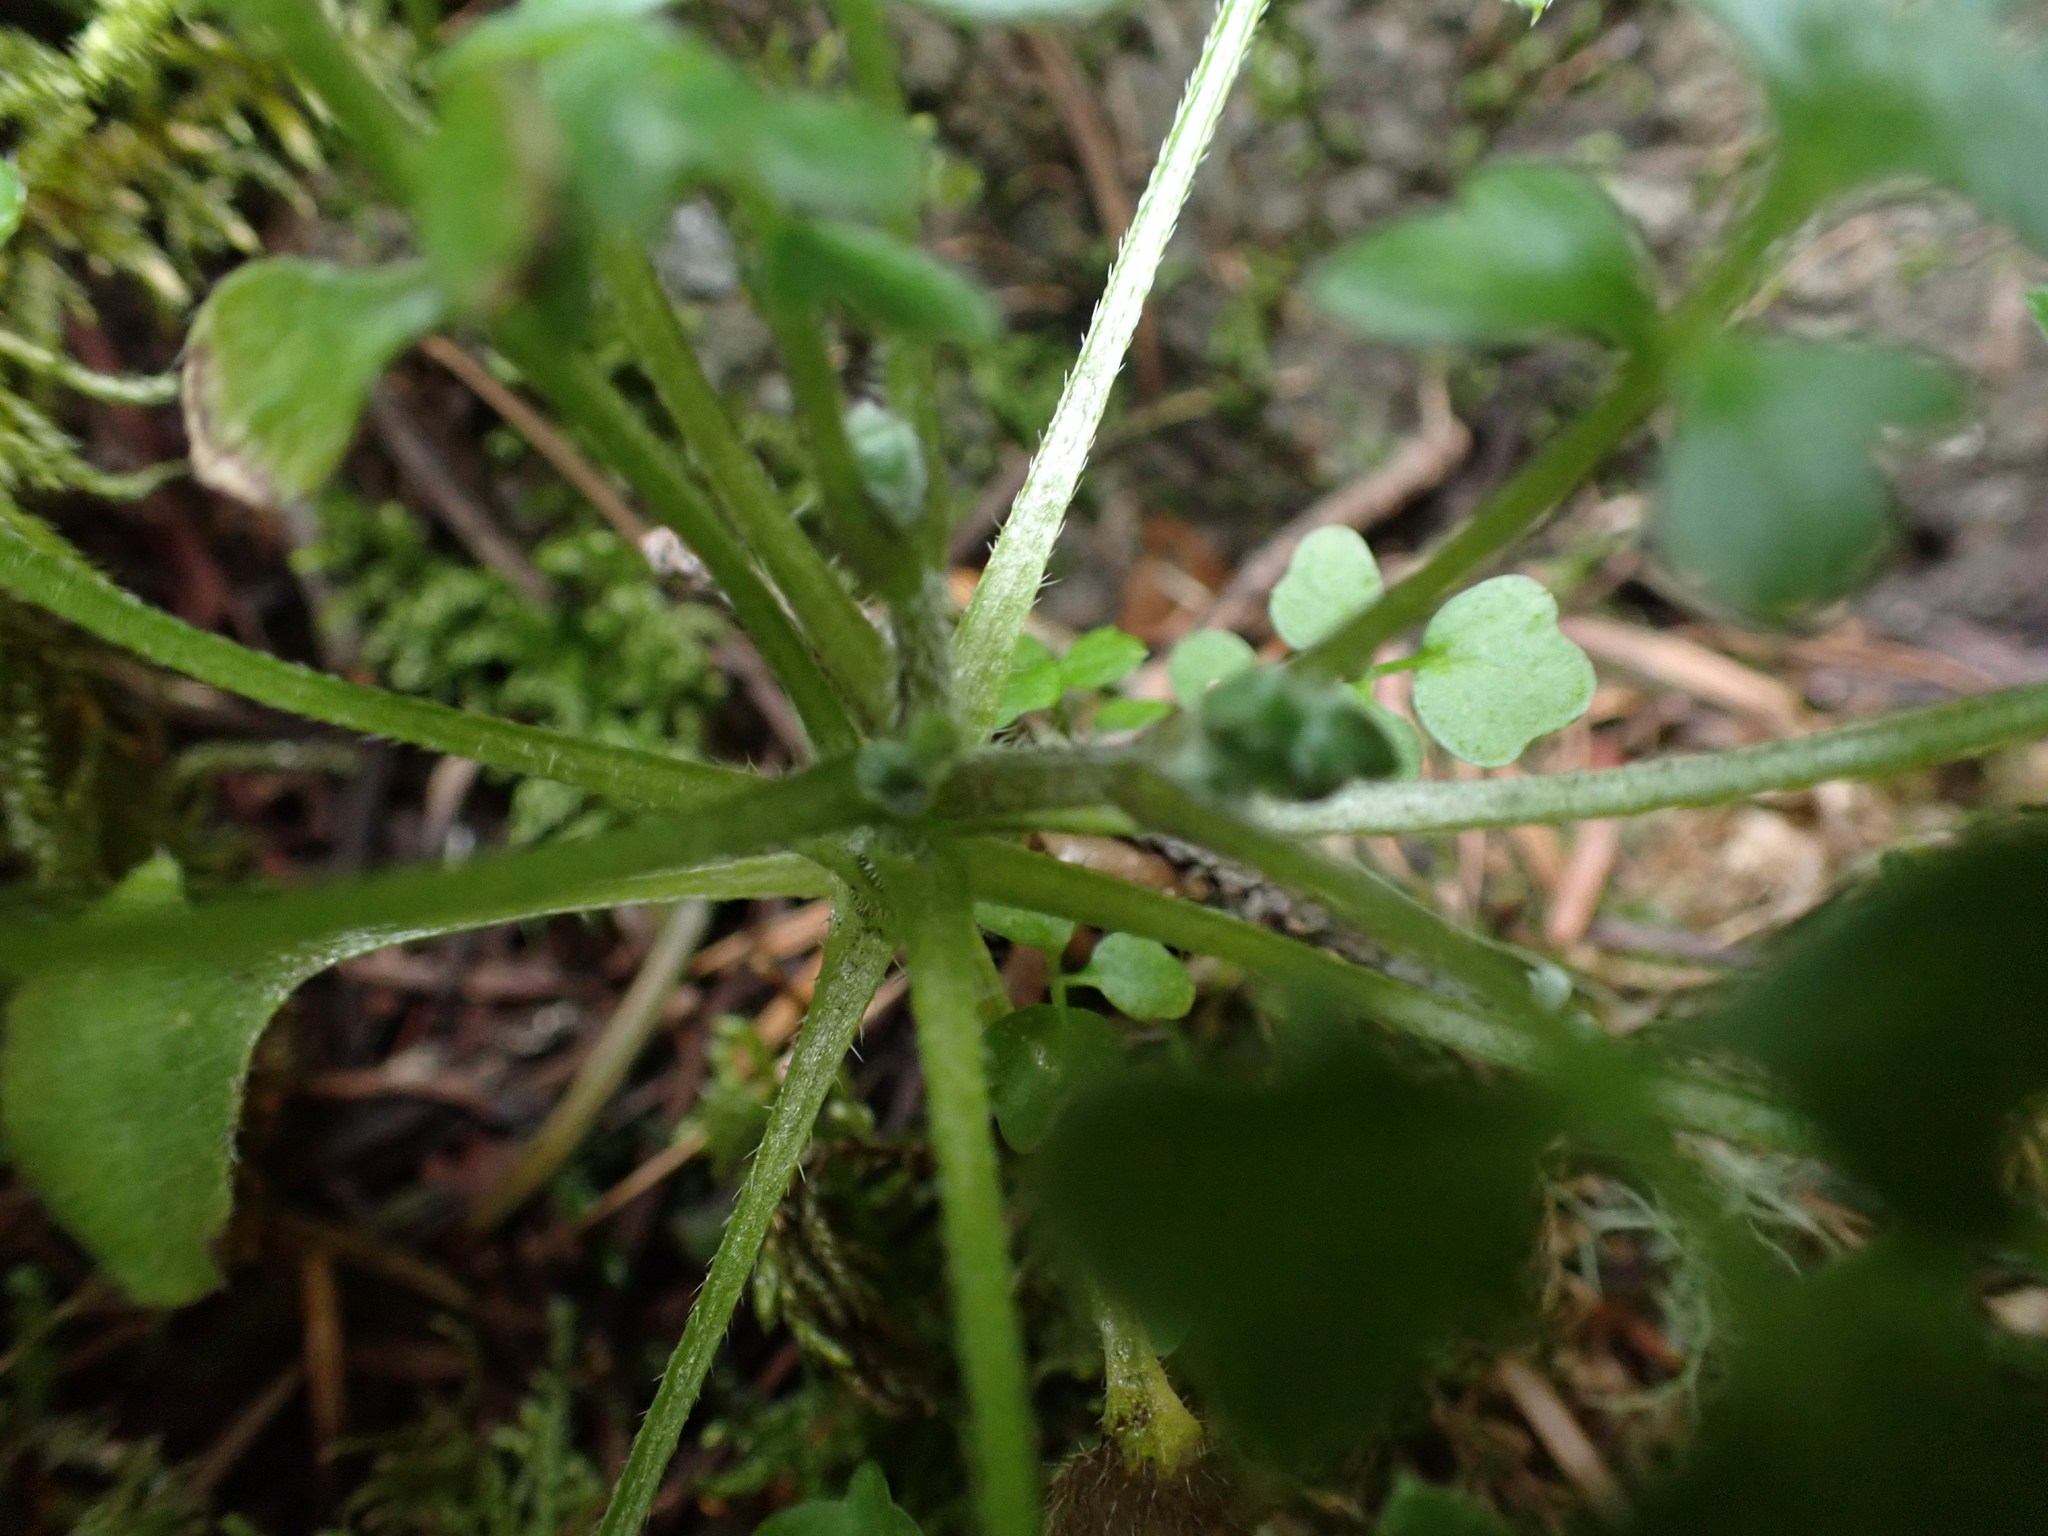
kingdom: Plantae
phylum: Tracheophyta
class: Magnoliopsida
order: Boraginales
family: Hydrophyllaceae
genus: Nemophila
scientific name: Nemophila parviflora
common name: Small-flowered baby-blue-eyes
